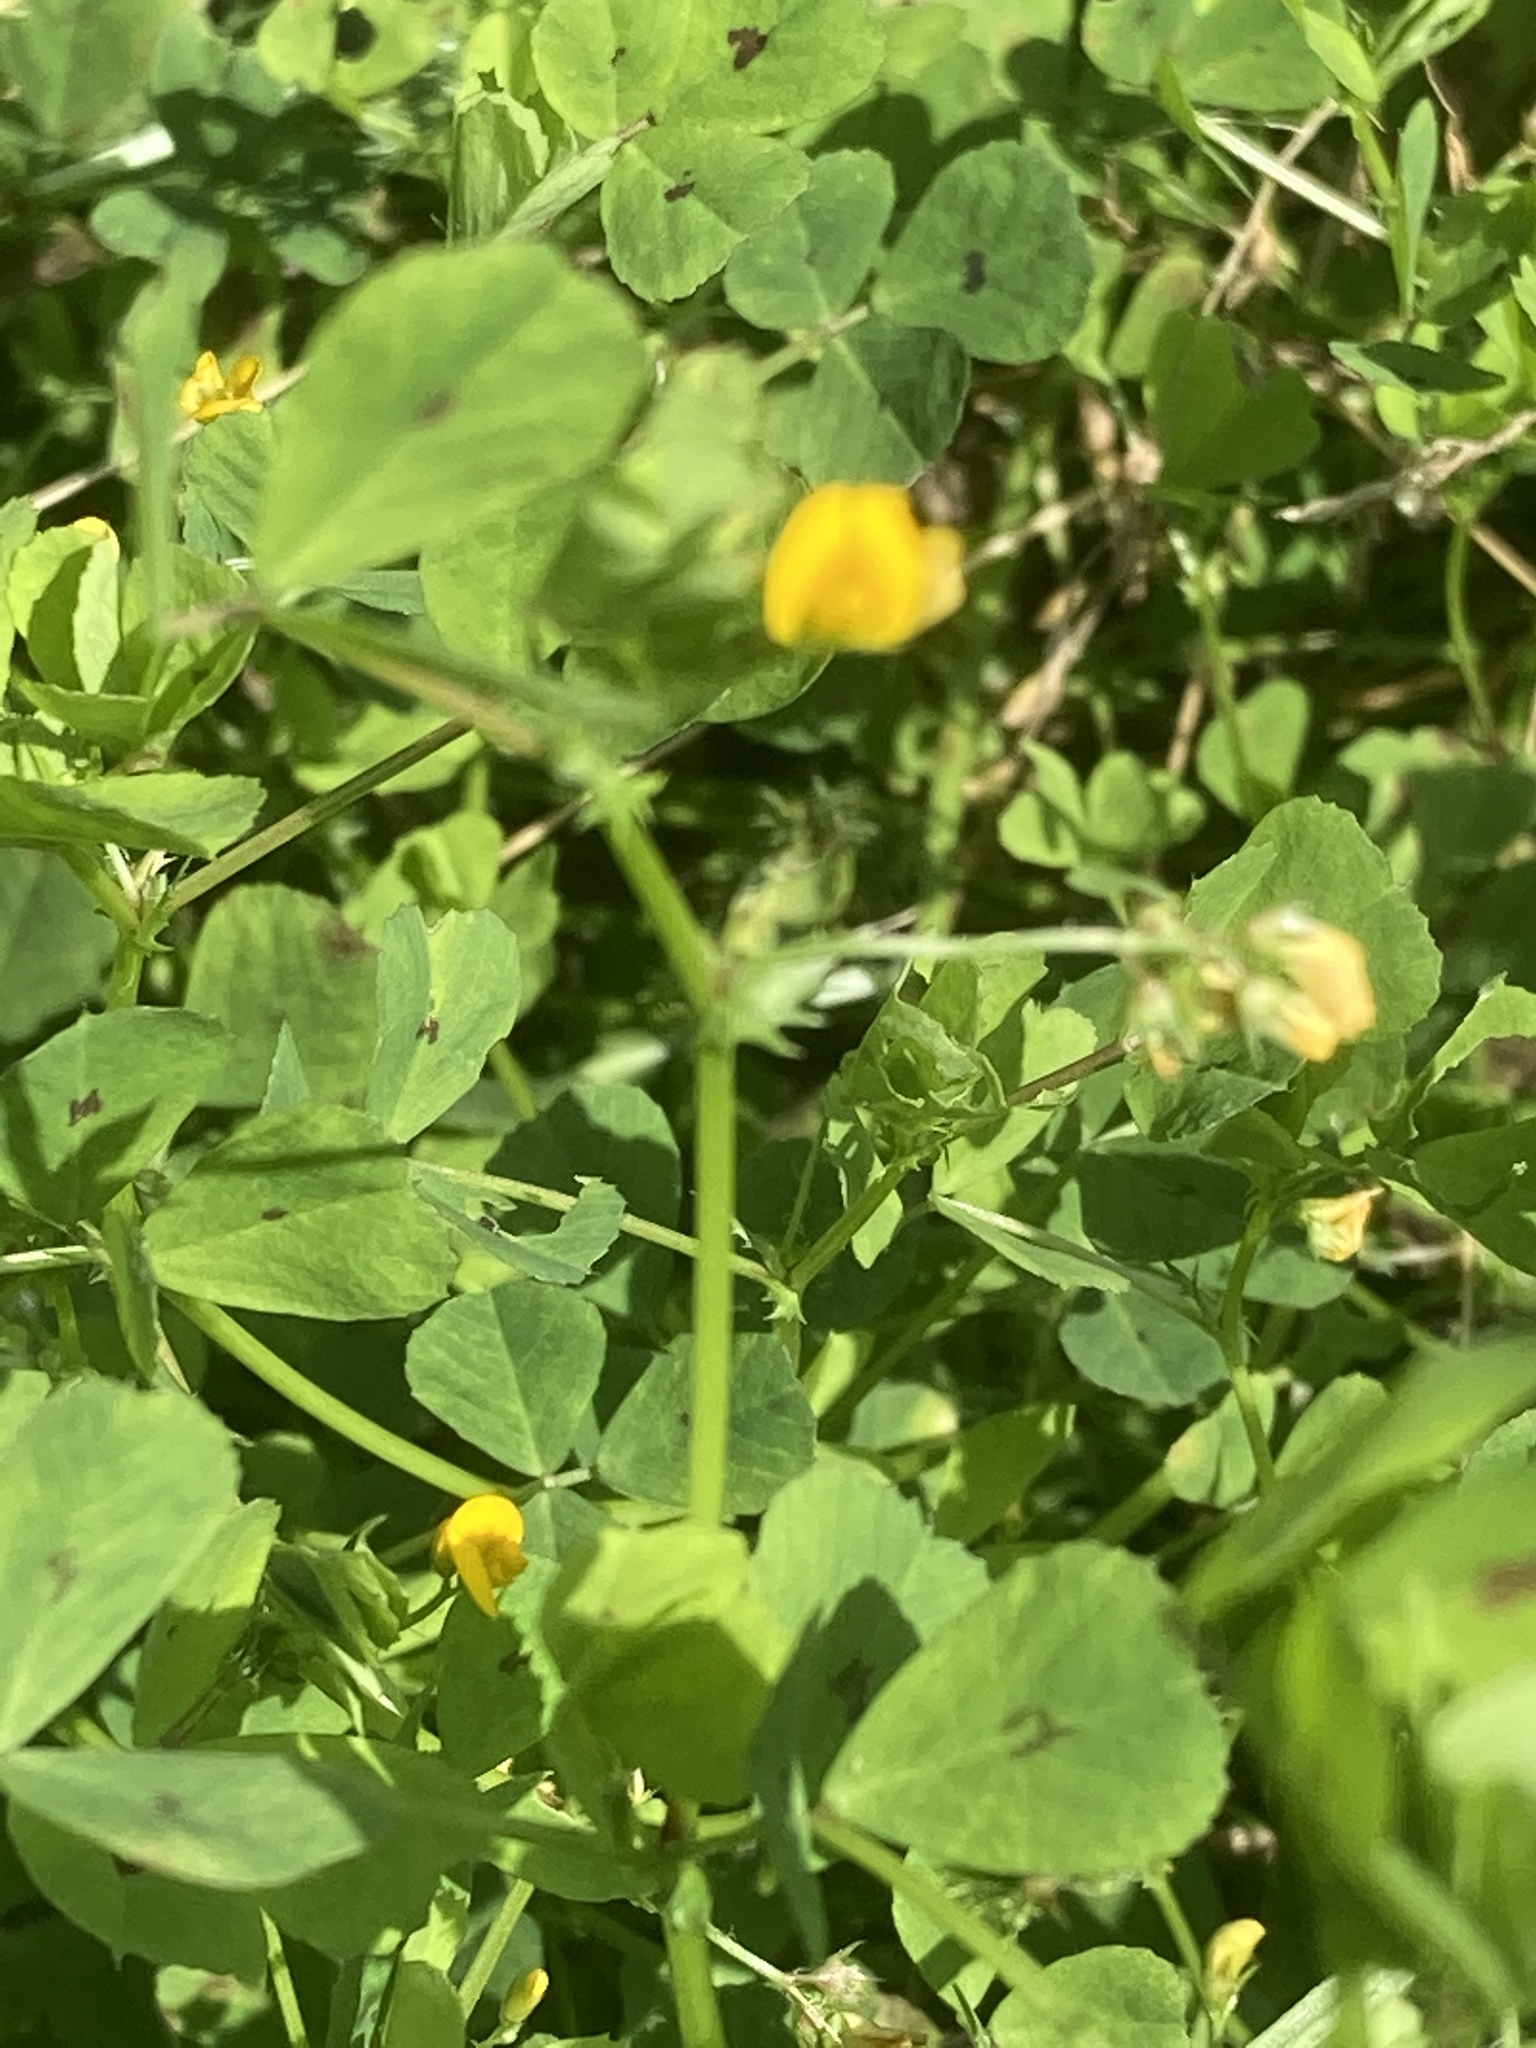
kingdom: Plantae
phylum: Tracheophyta
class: Magnoliopsida
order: Fabales
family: Fabaceae
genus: Medicago
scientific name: Medicago arabica
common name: Spotted medick
